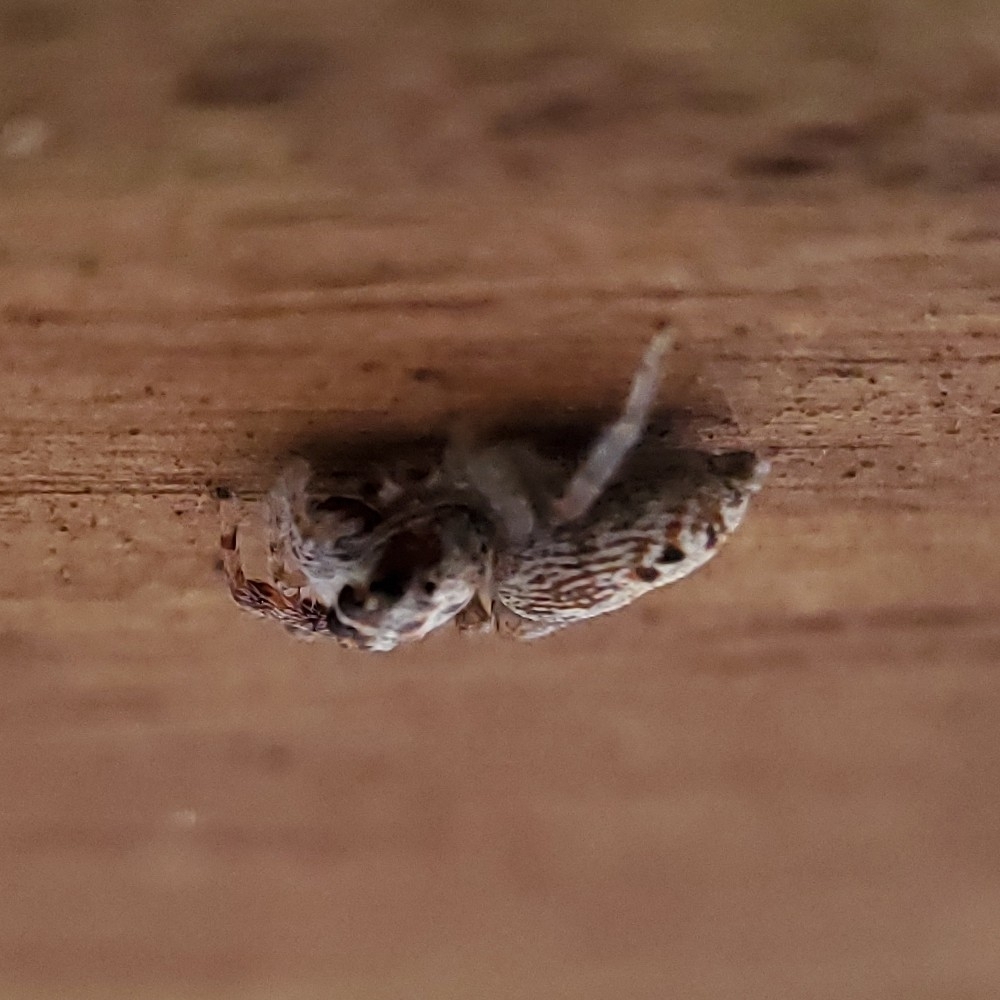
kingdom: Animalia
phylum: Arthropoda
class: Arachnida
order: Araneae
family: Salticidae
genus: Opisthoncus
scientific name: Opisthoncus polyphemus
